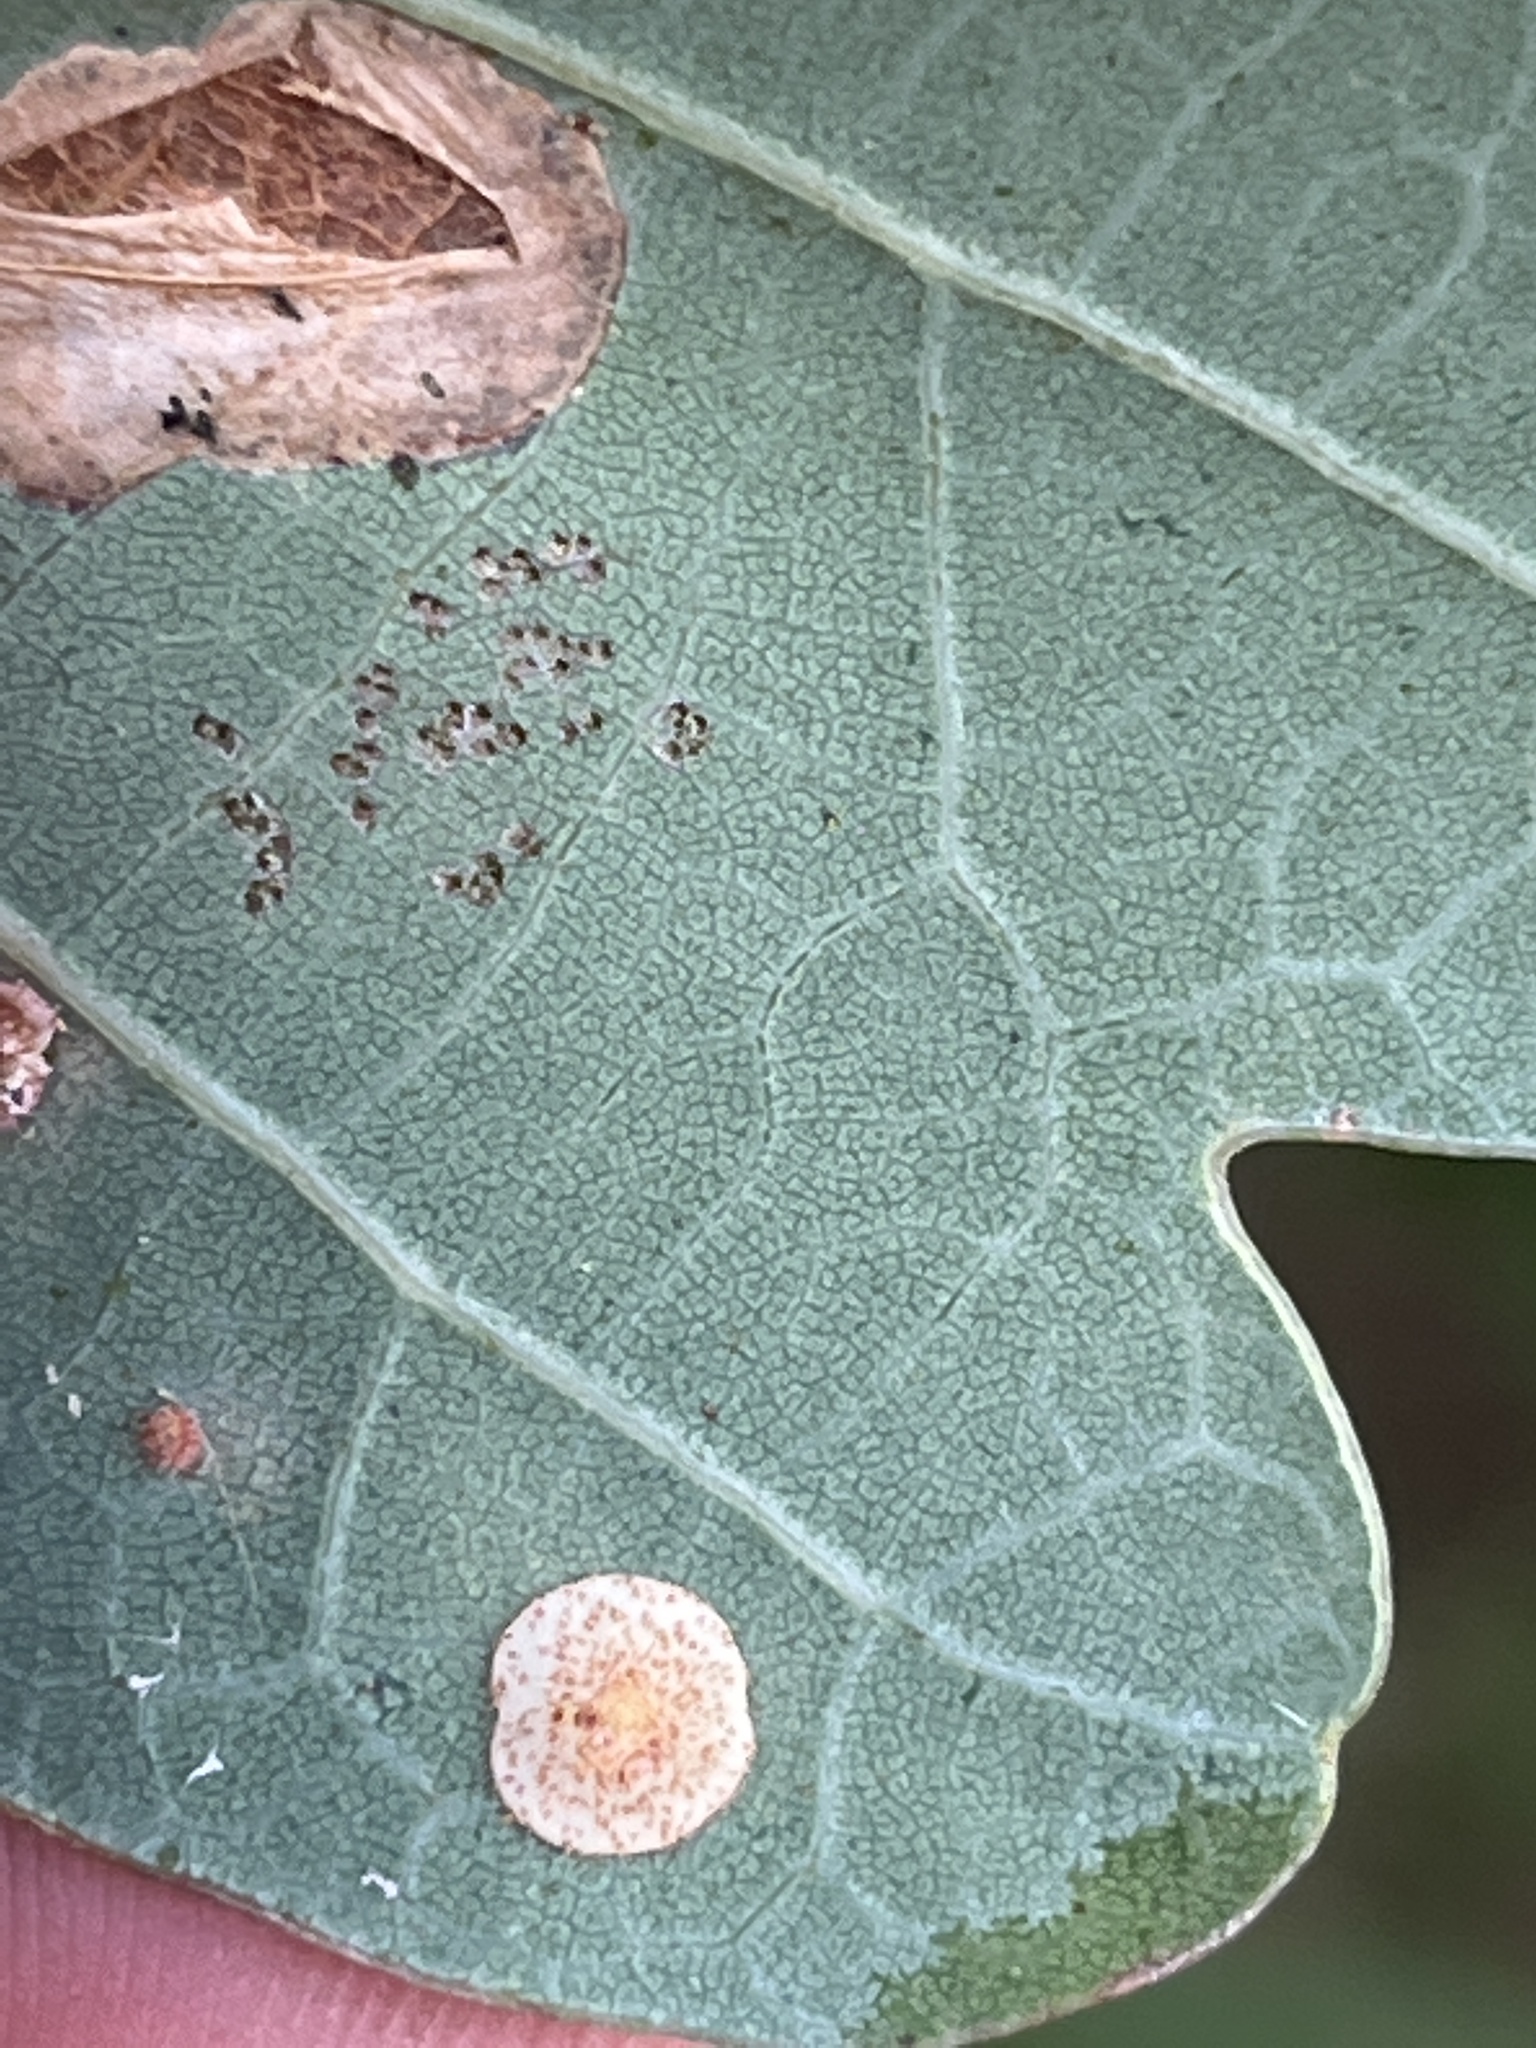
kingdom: Animalia
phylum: Arthropoda
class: Insecta
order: Hymenoptera
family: Cynipidae
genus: Neuroterus
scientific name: Neuroterus quercusbaccarum
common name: Common spangle gall
